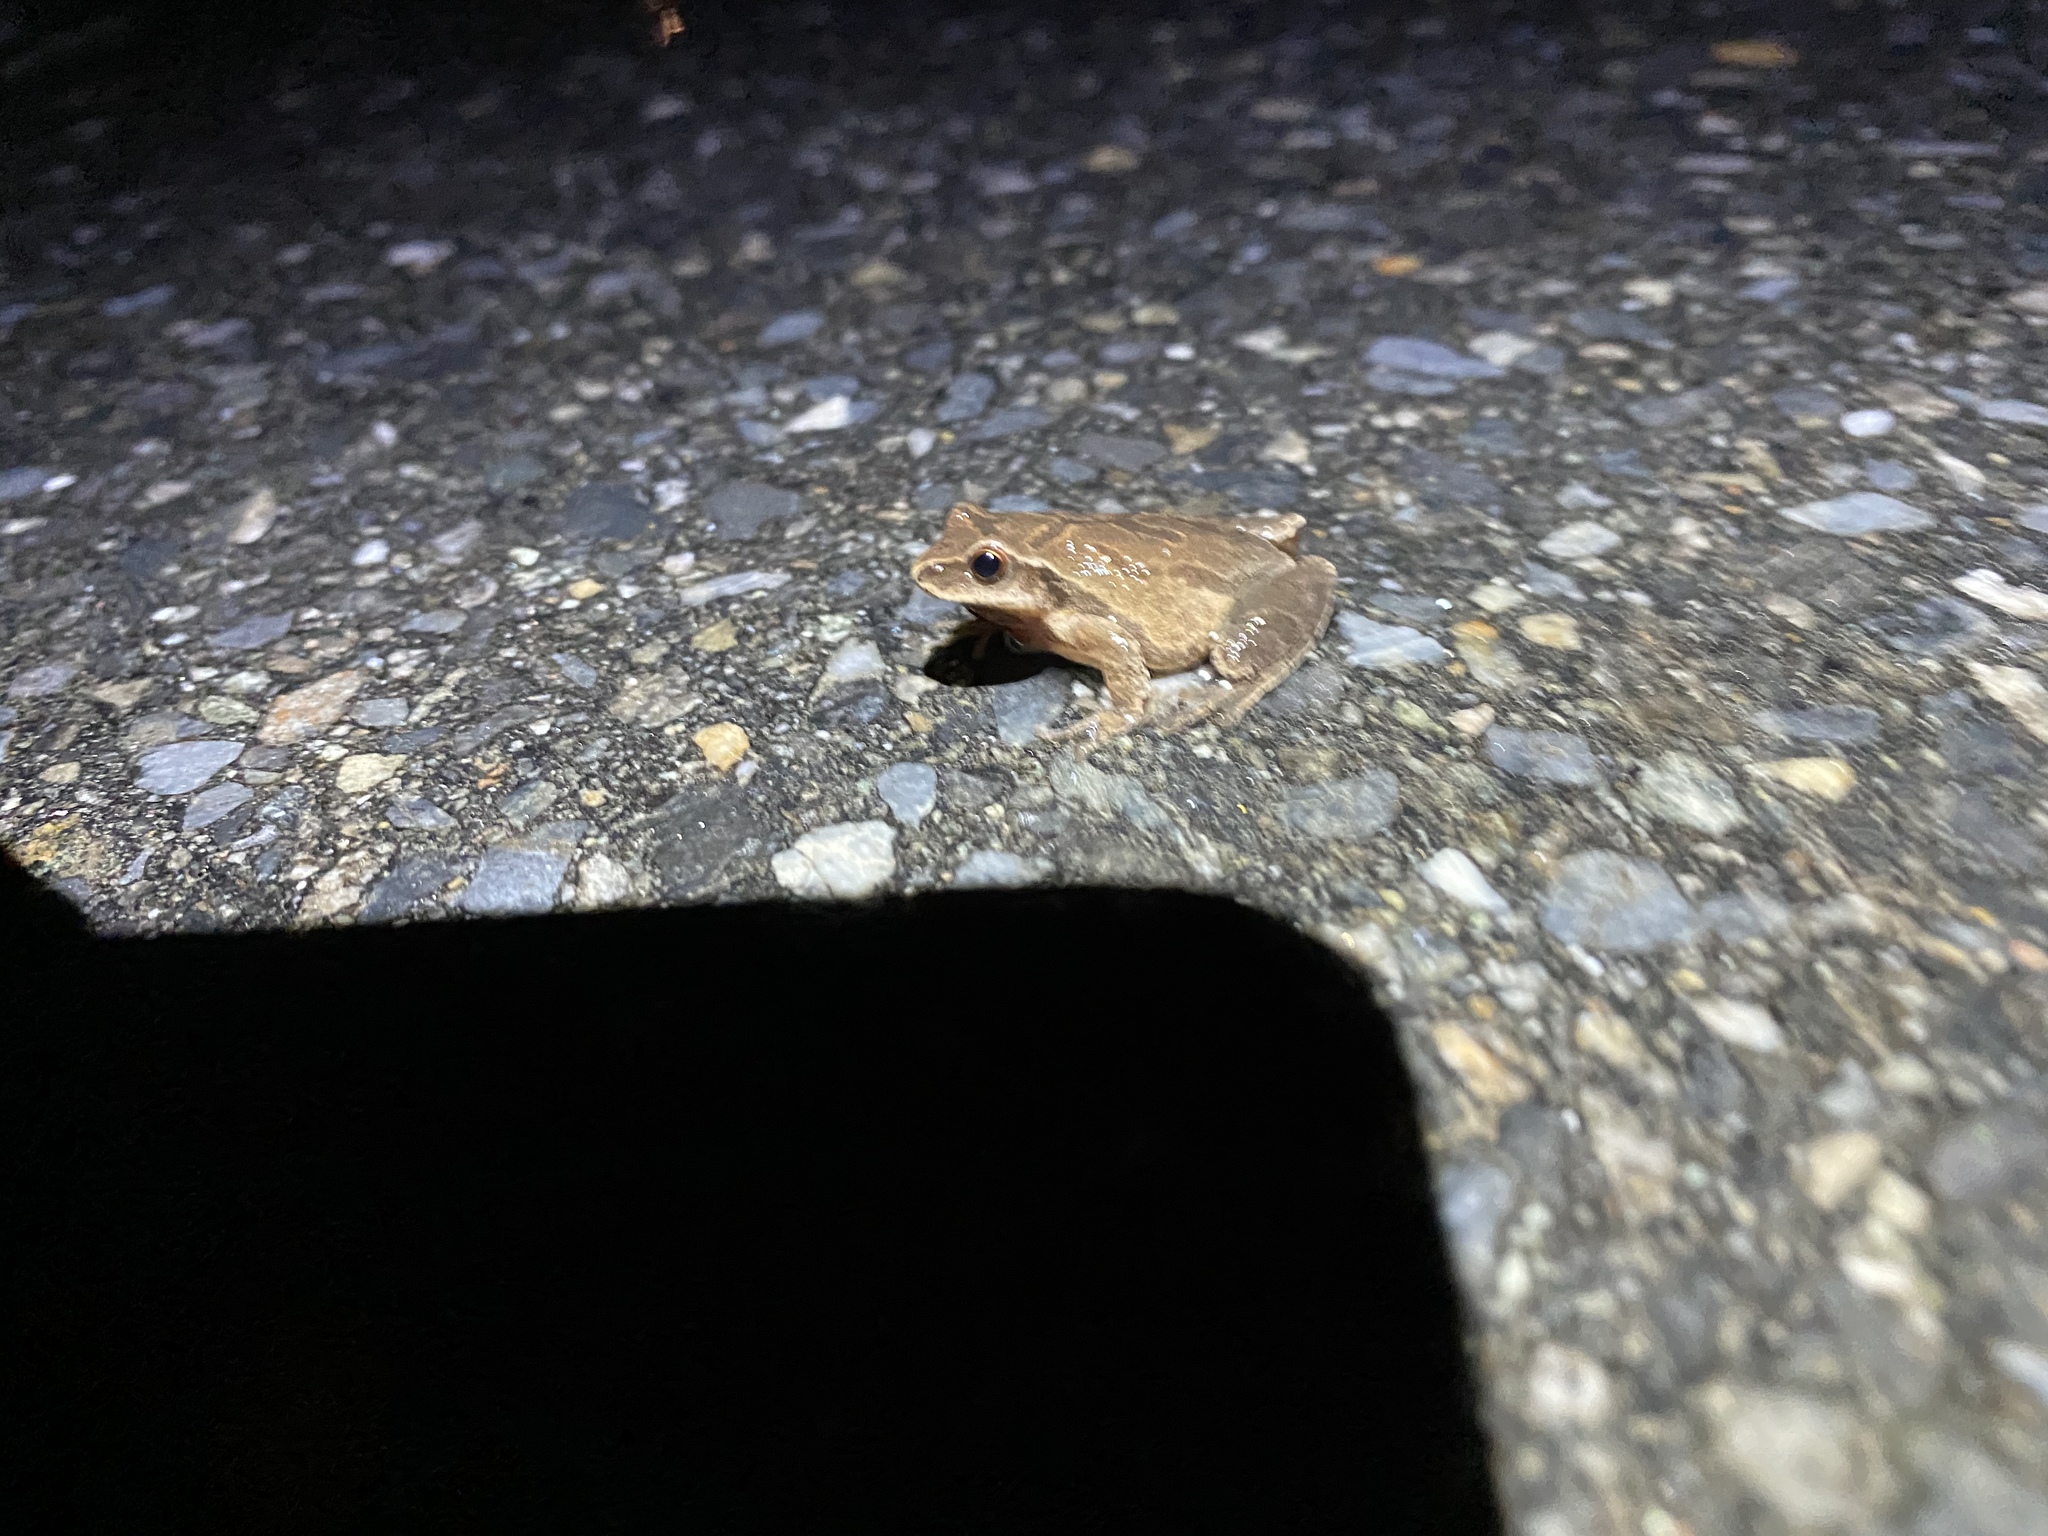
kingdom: Animalia
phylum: Chordata
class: Amphibia
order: Anura
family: Hylidae
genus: Pseudacris
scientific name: Pseudacris crucifer
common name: Spring peeper
